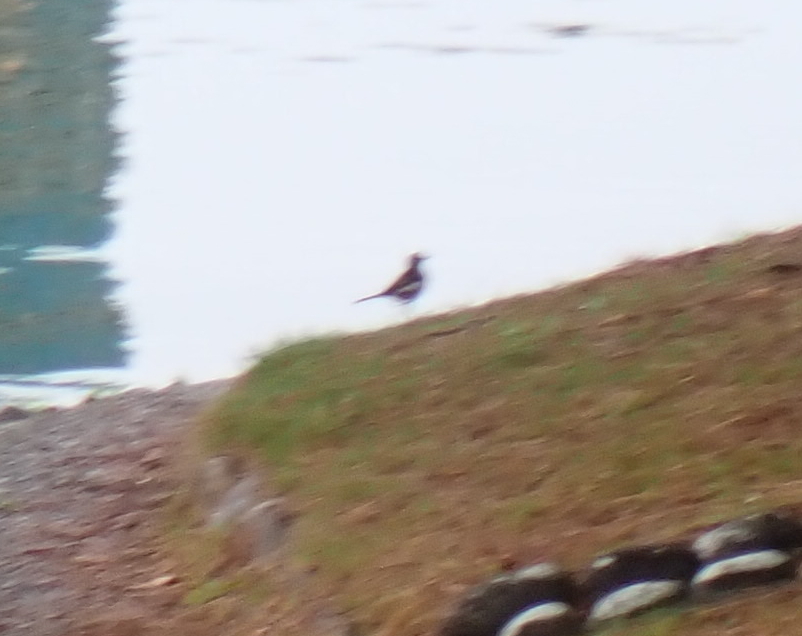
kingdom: Animalia
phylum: Chordata
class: Aves
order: Passeriformes
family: Motacillidae
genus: Motacilla
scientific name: Motacilla alba
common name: White wagtail
